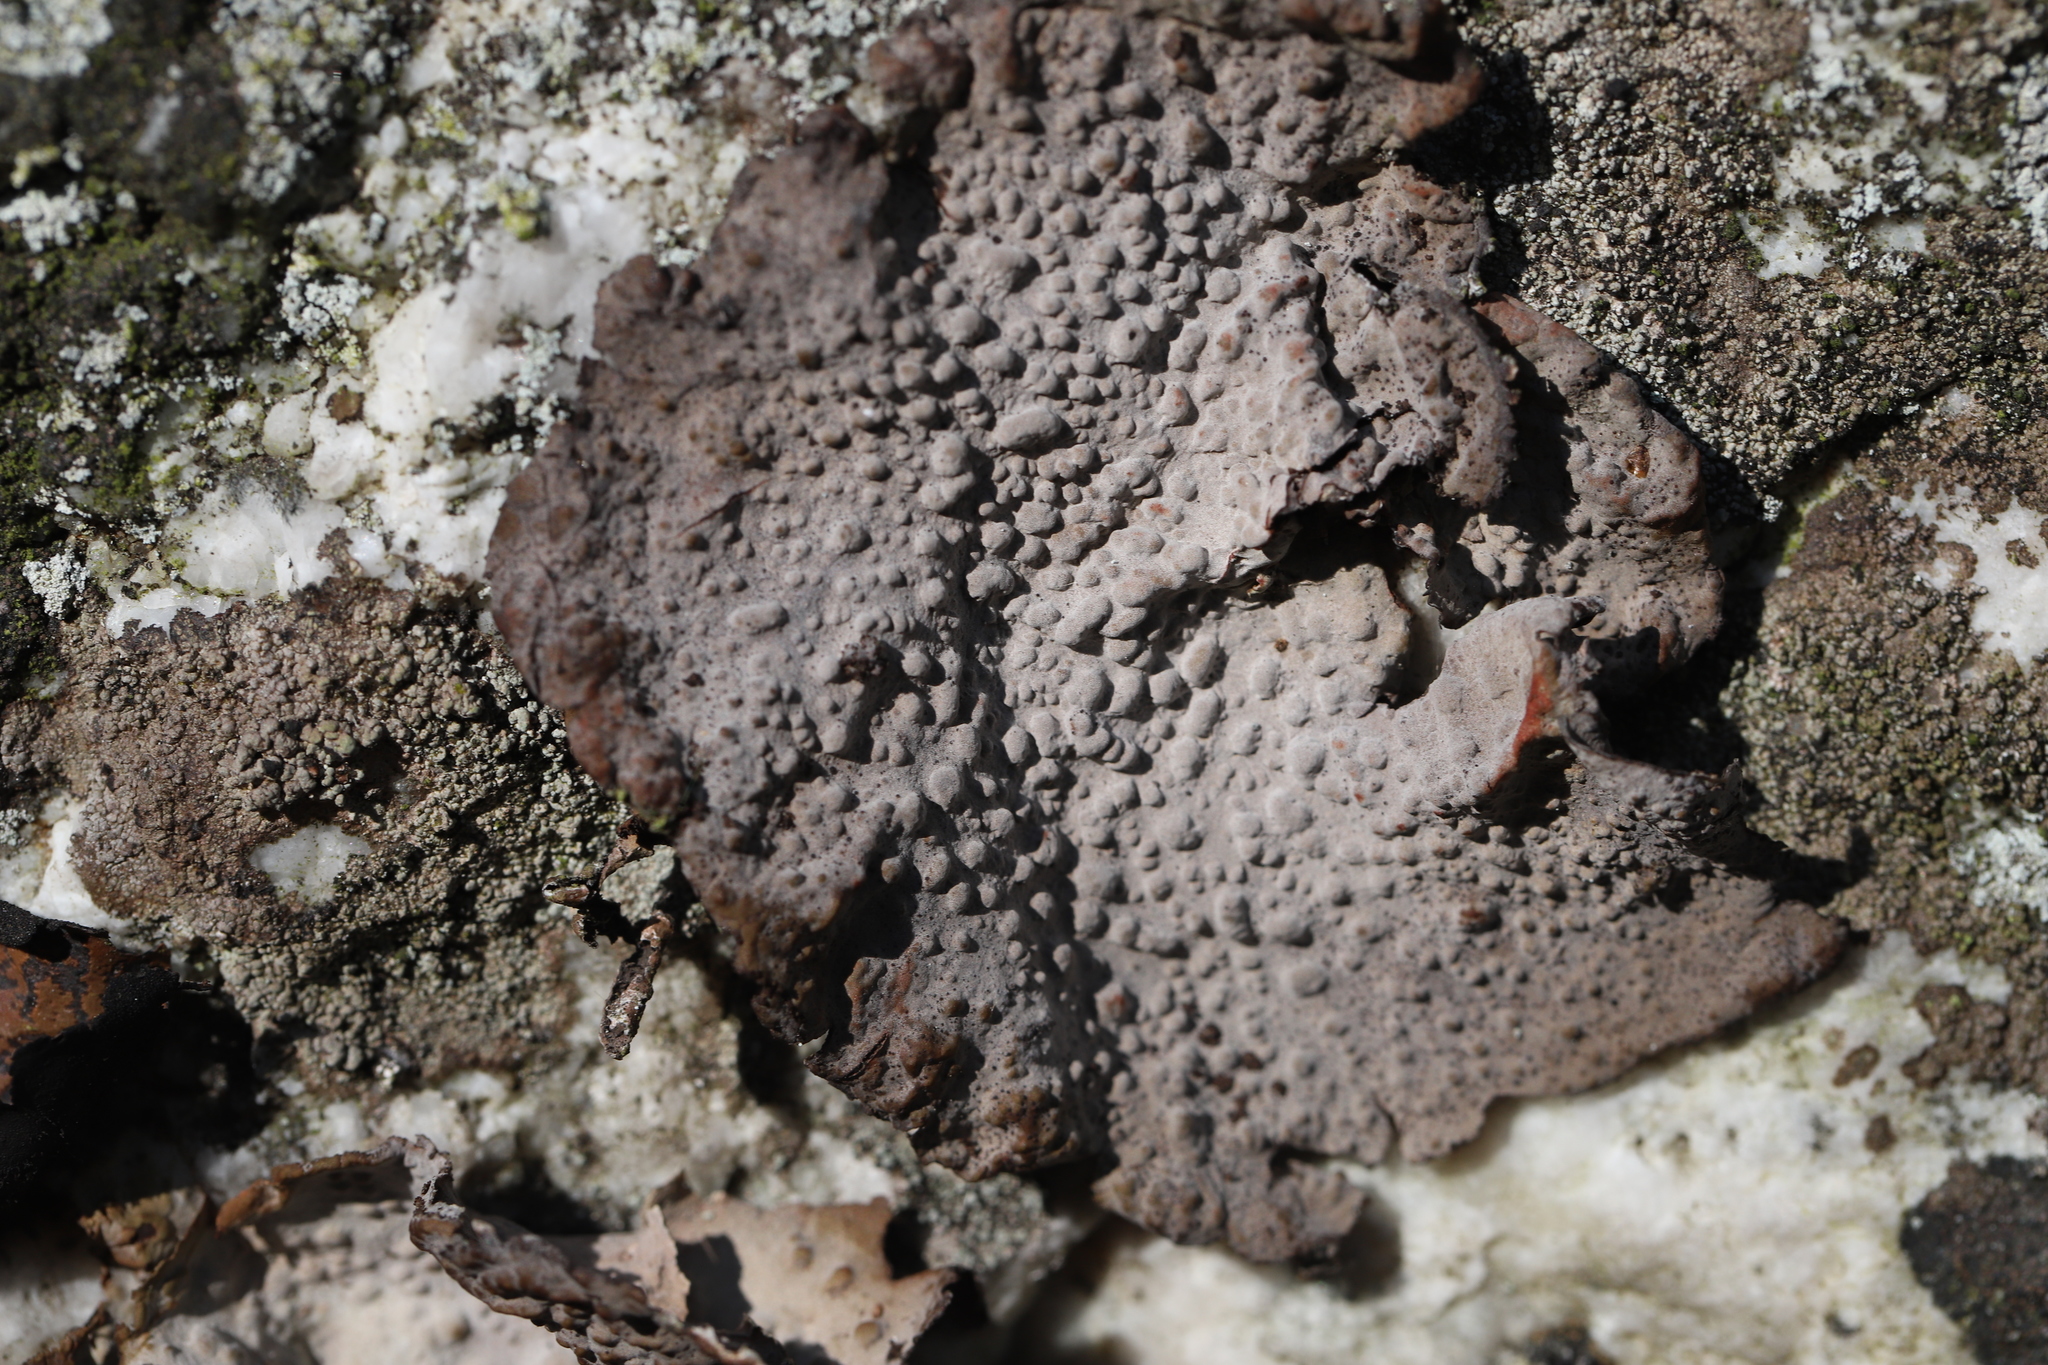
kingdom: Fungi
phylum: Ascomycota
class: Lecanoromycetes
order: Umbilicariales
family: Umbilicariaceae
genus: Lasallia
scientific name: Lasallia papulosa
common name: Common toadskin lichen
